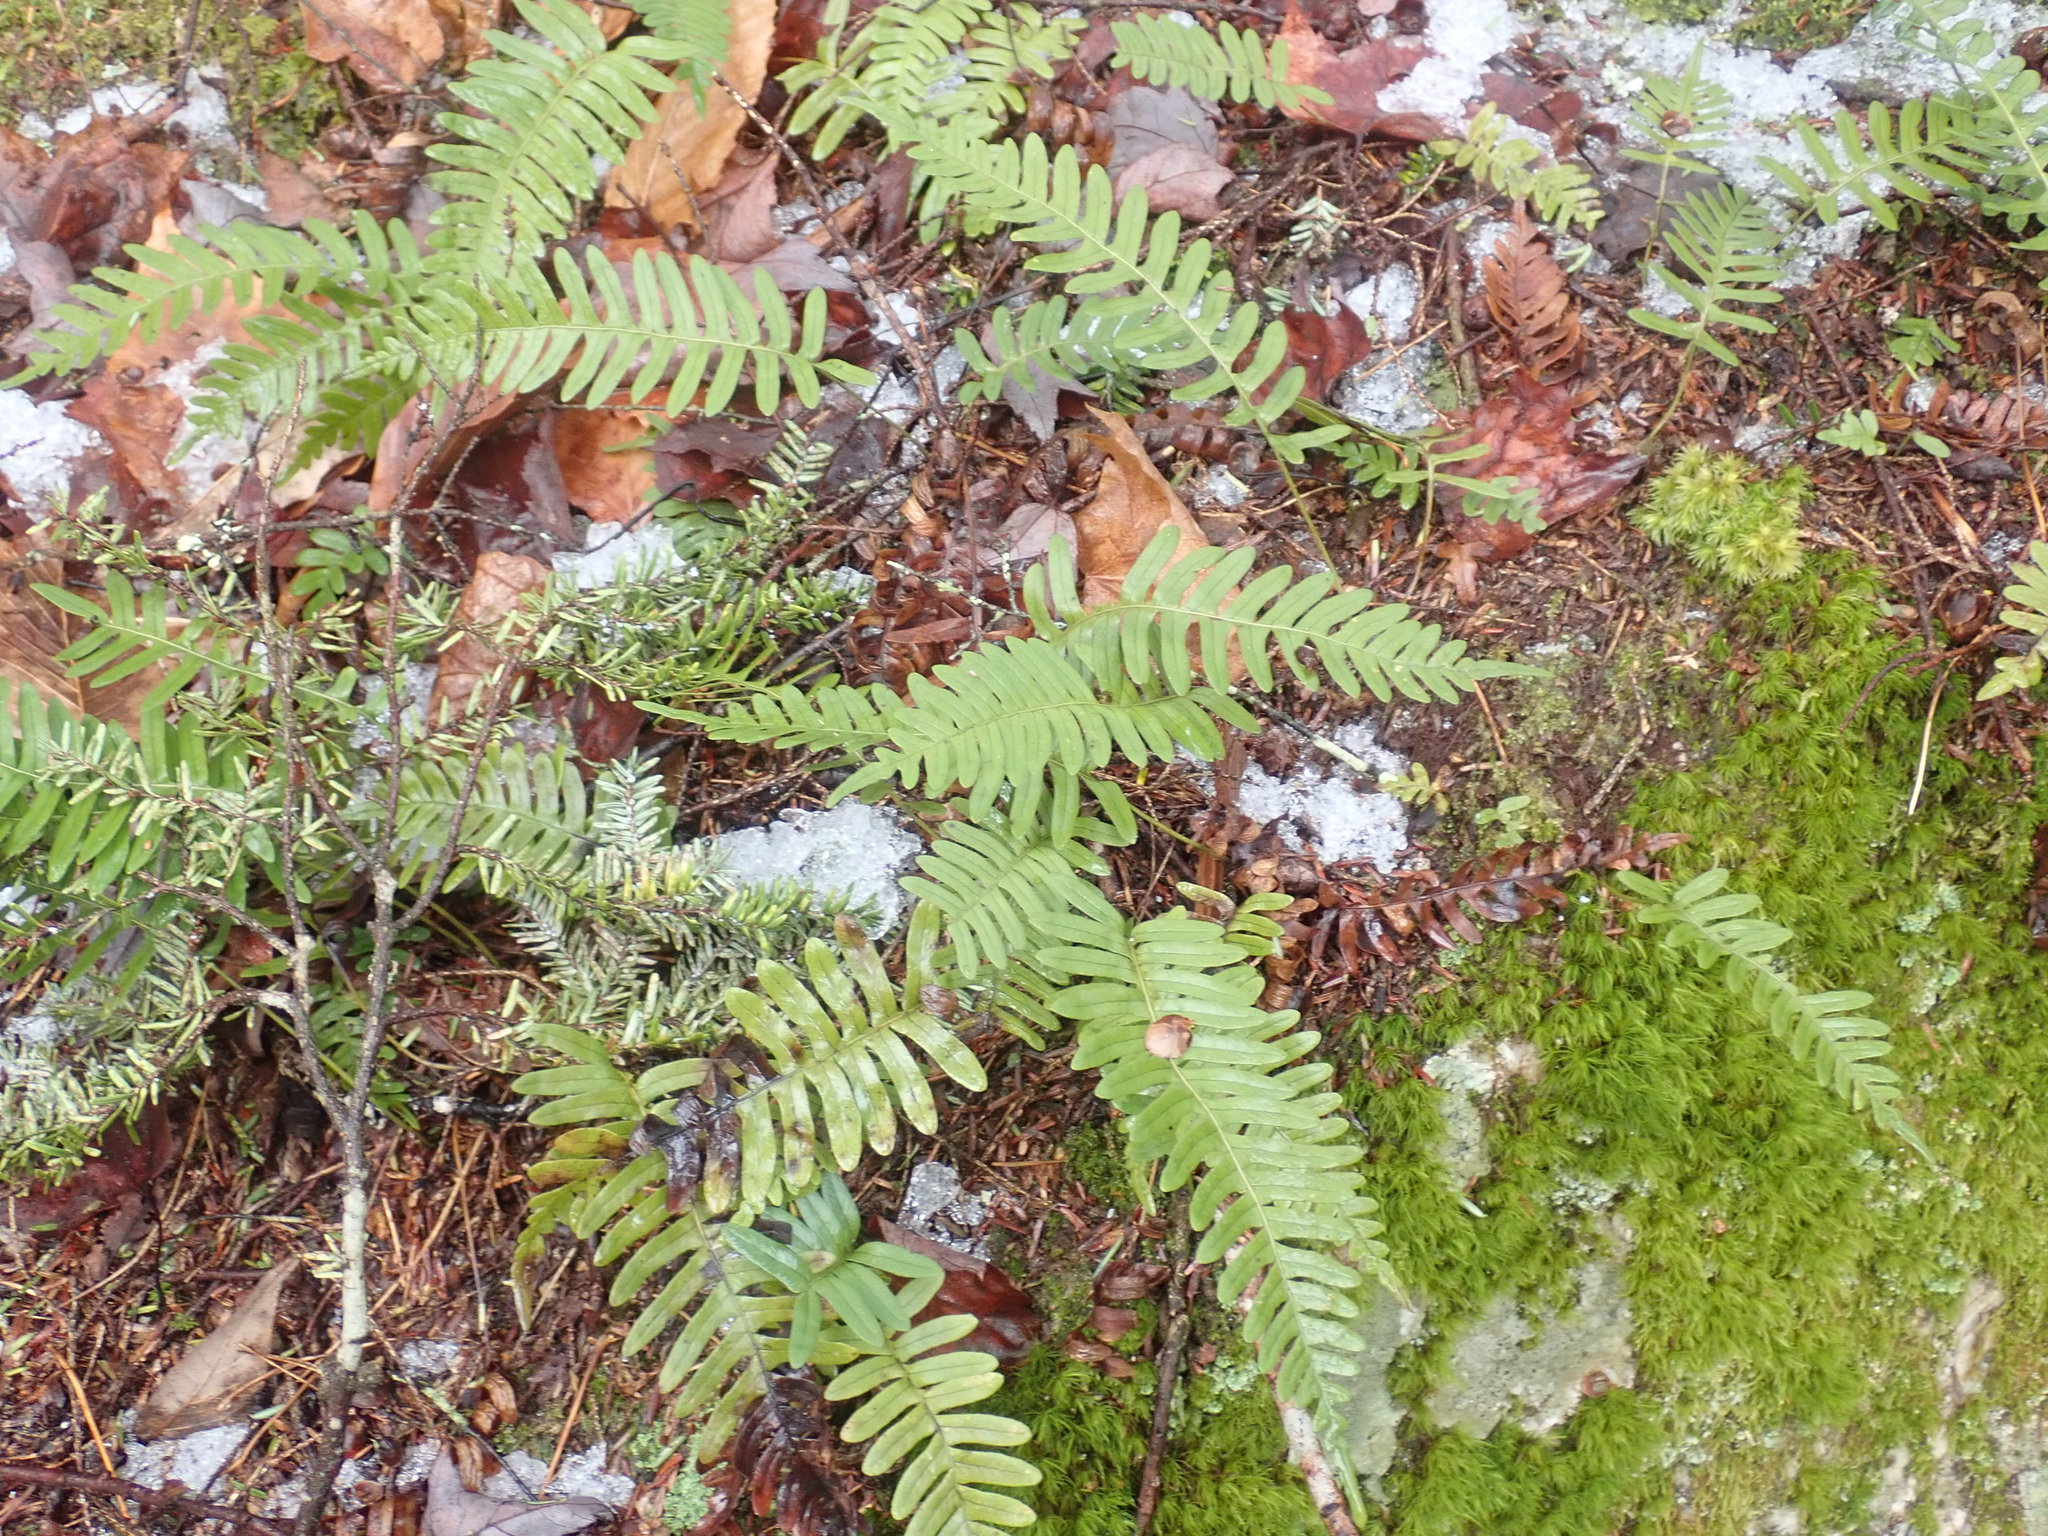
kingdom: Plantae
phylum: Tracheophyta
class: Polypodiopsida
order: Polypodiales
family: Polypodiaceae
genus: Polypodium
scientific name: Polypodium
